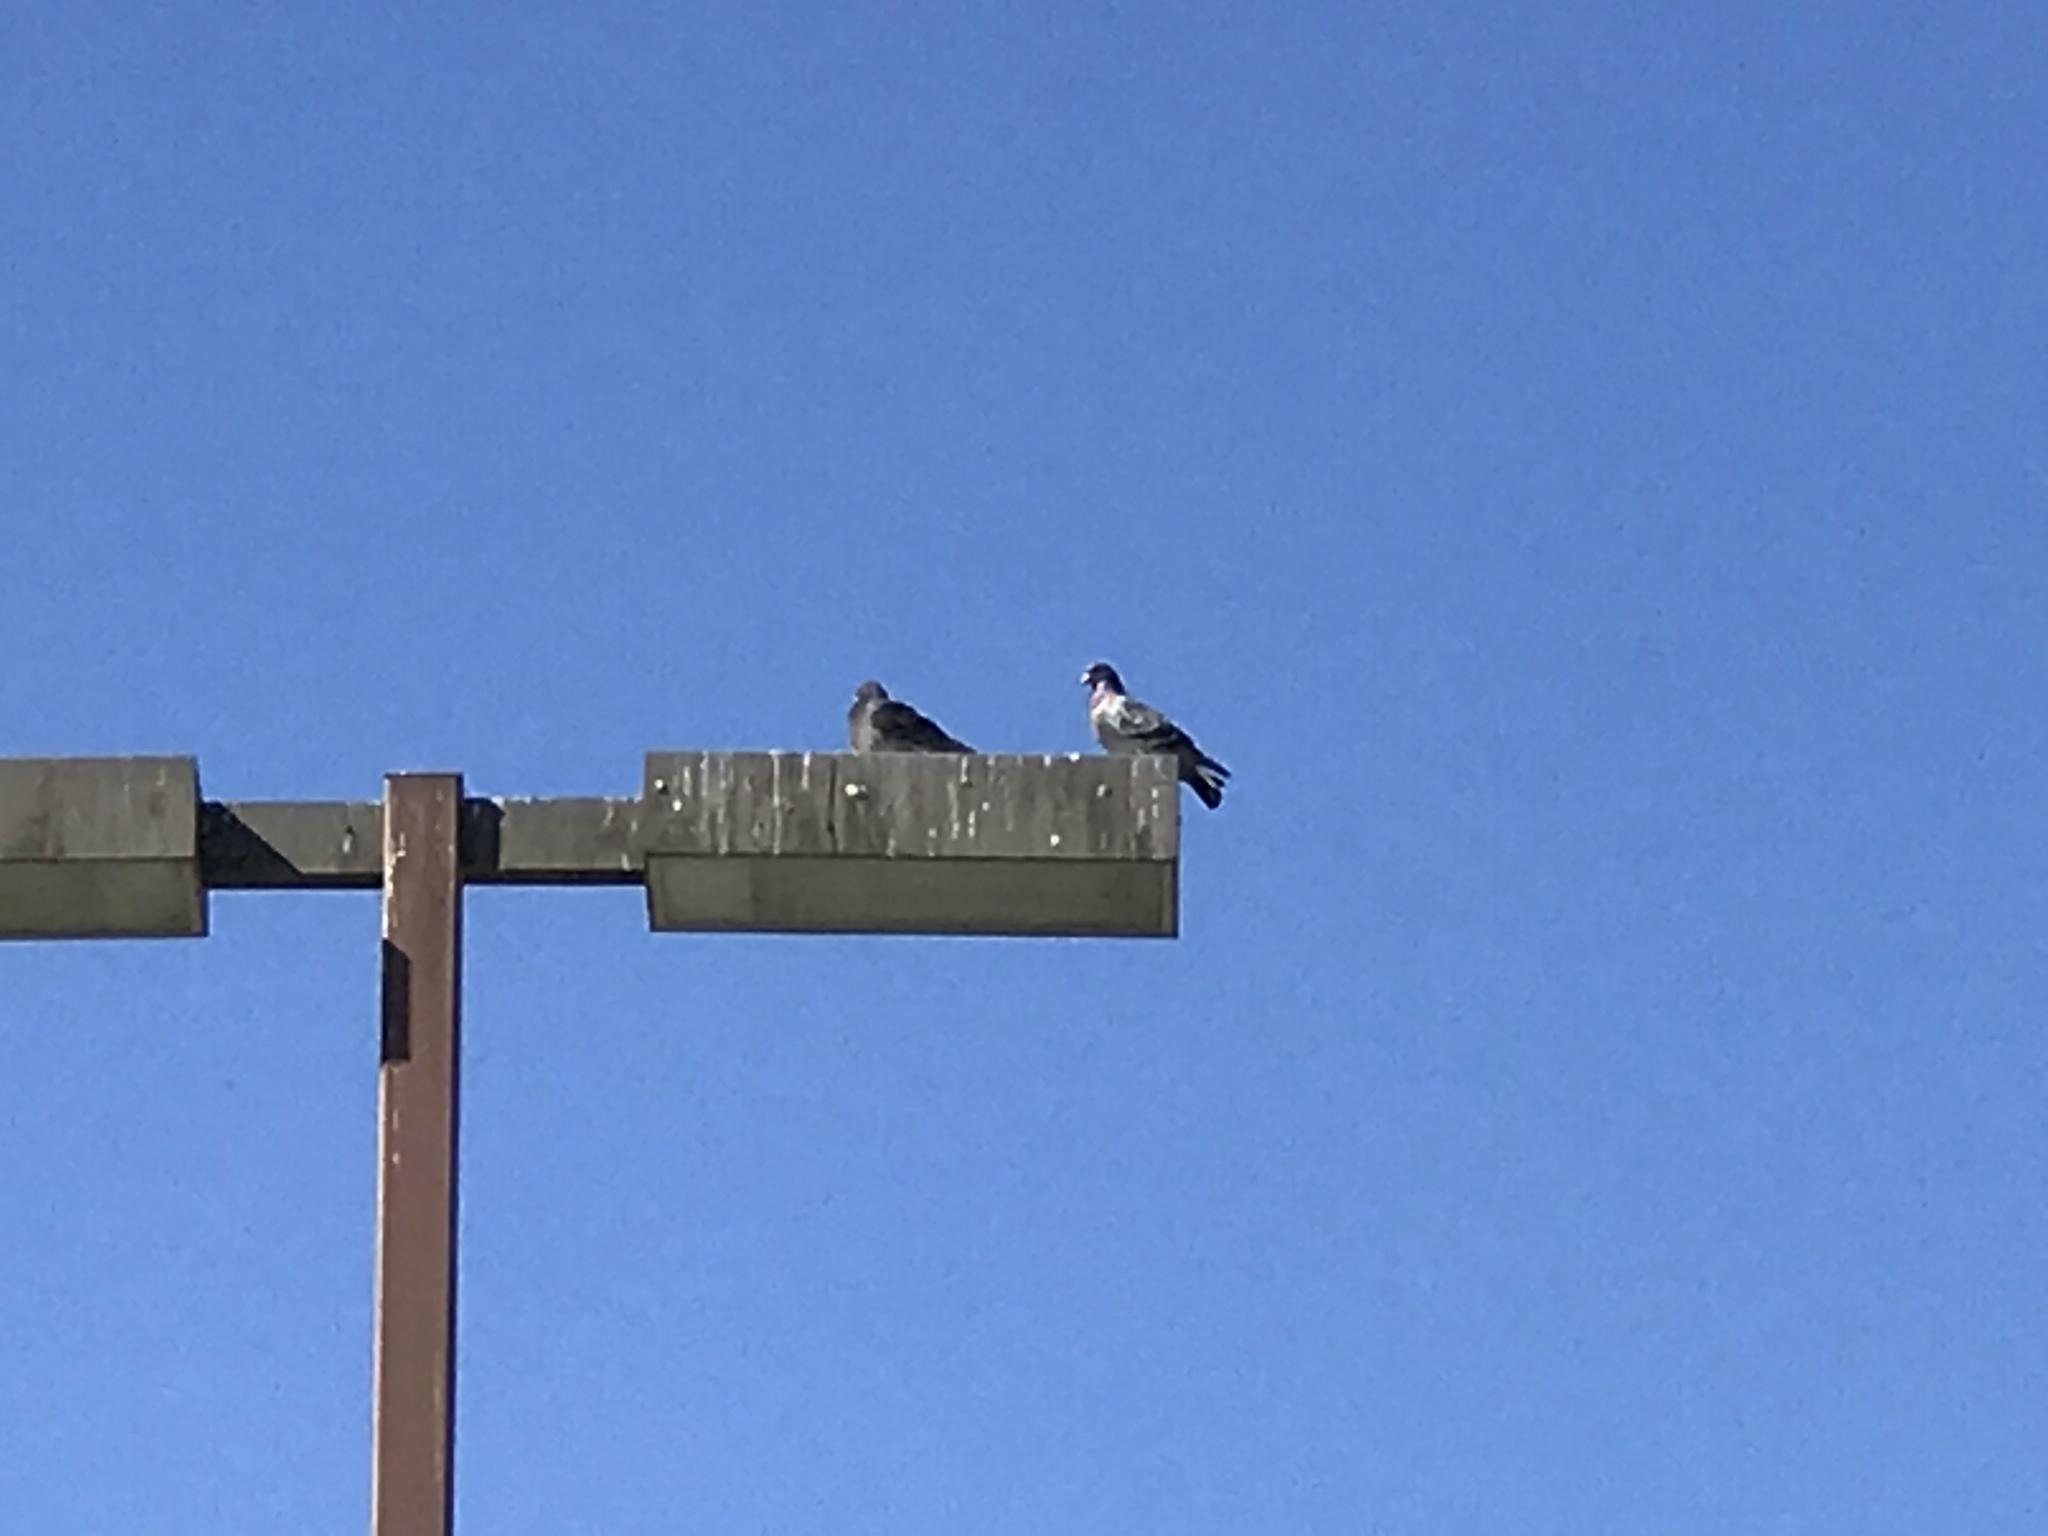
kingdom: Animalia
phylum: Chordata
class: Aves
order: Columbiformes
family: Columbidae
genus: Columba
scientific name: Columba livia
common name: Rock pigeon
